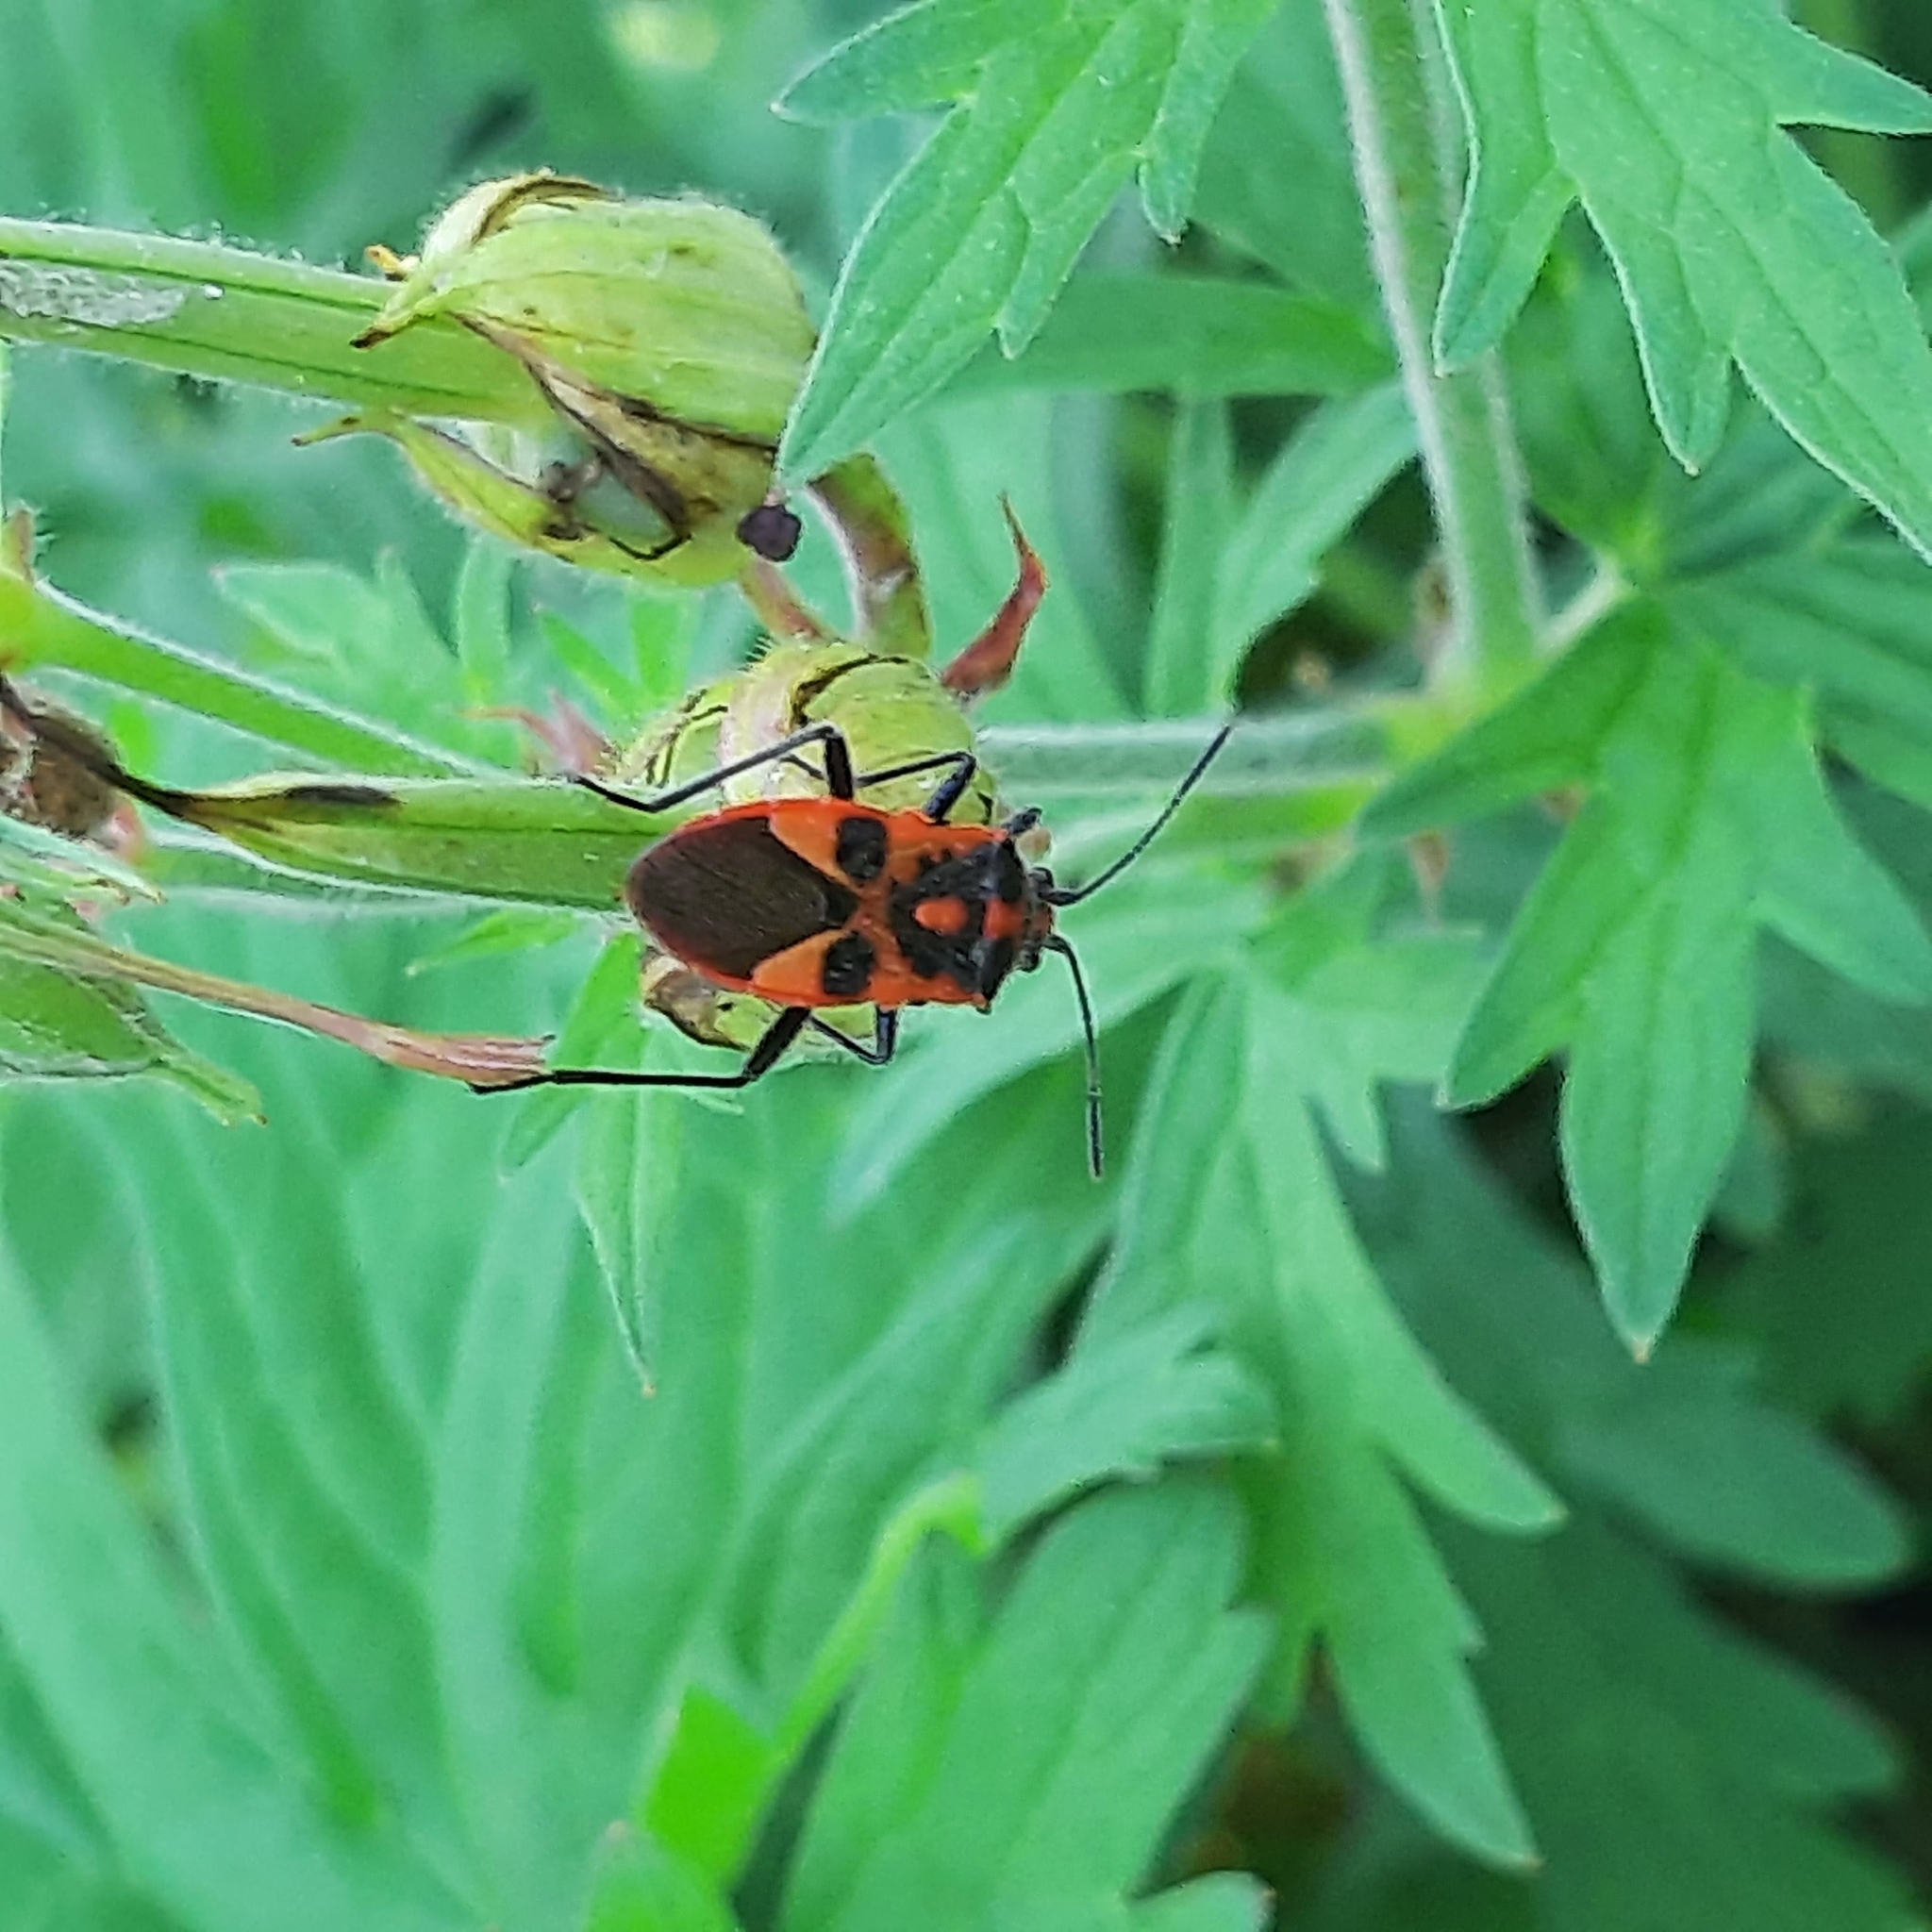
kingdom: Animalia
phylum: Arthropoda
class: Insecta
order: Hemiptera
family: Rhopalidae
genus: Corizus
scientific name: Corizus hyoscyami
